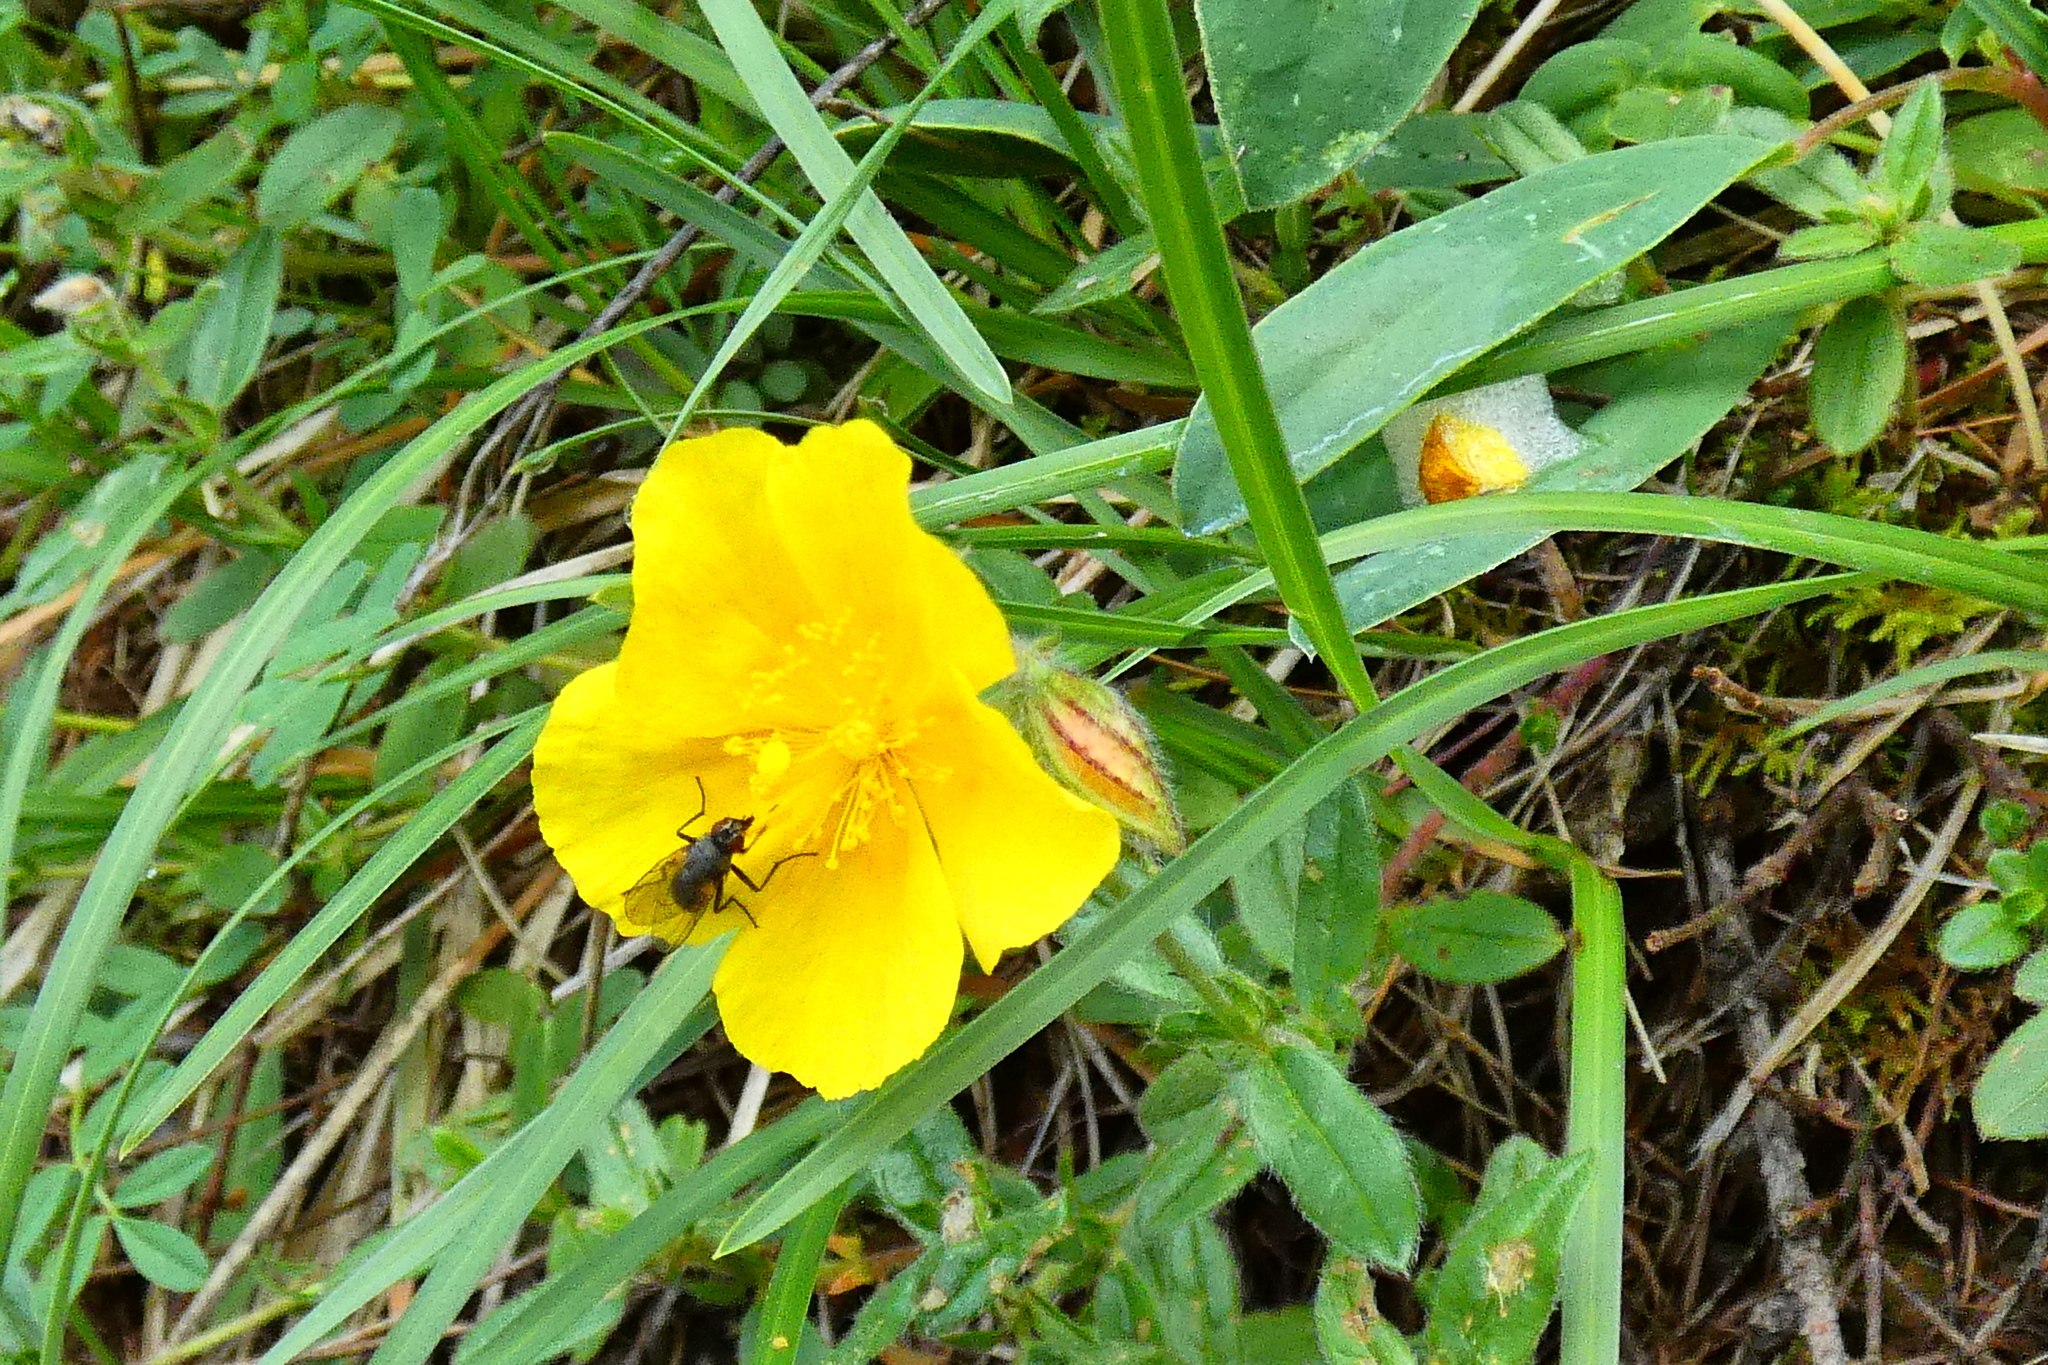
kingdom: Plantae
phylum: Tracheophyta
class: Magnoliopsida
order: Malvales
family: Cistaceae
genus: Helianthemum
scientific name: Helianthemum nummularium
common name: Common rock-rose
